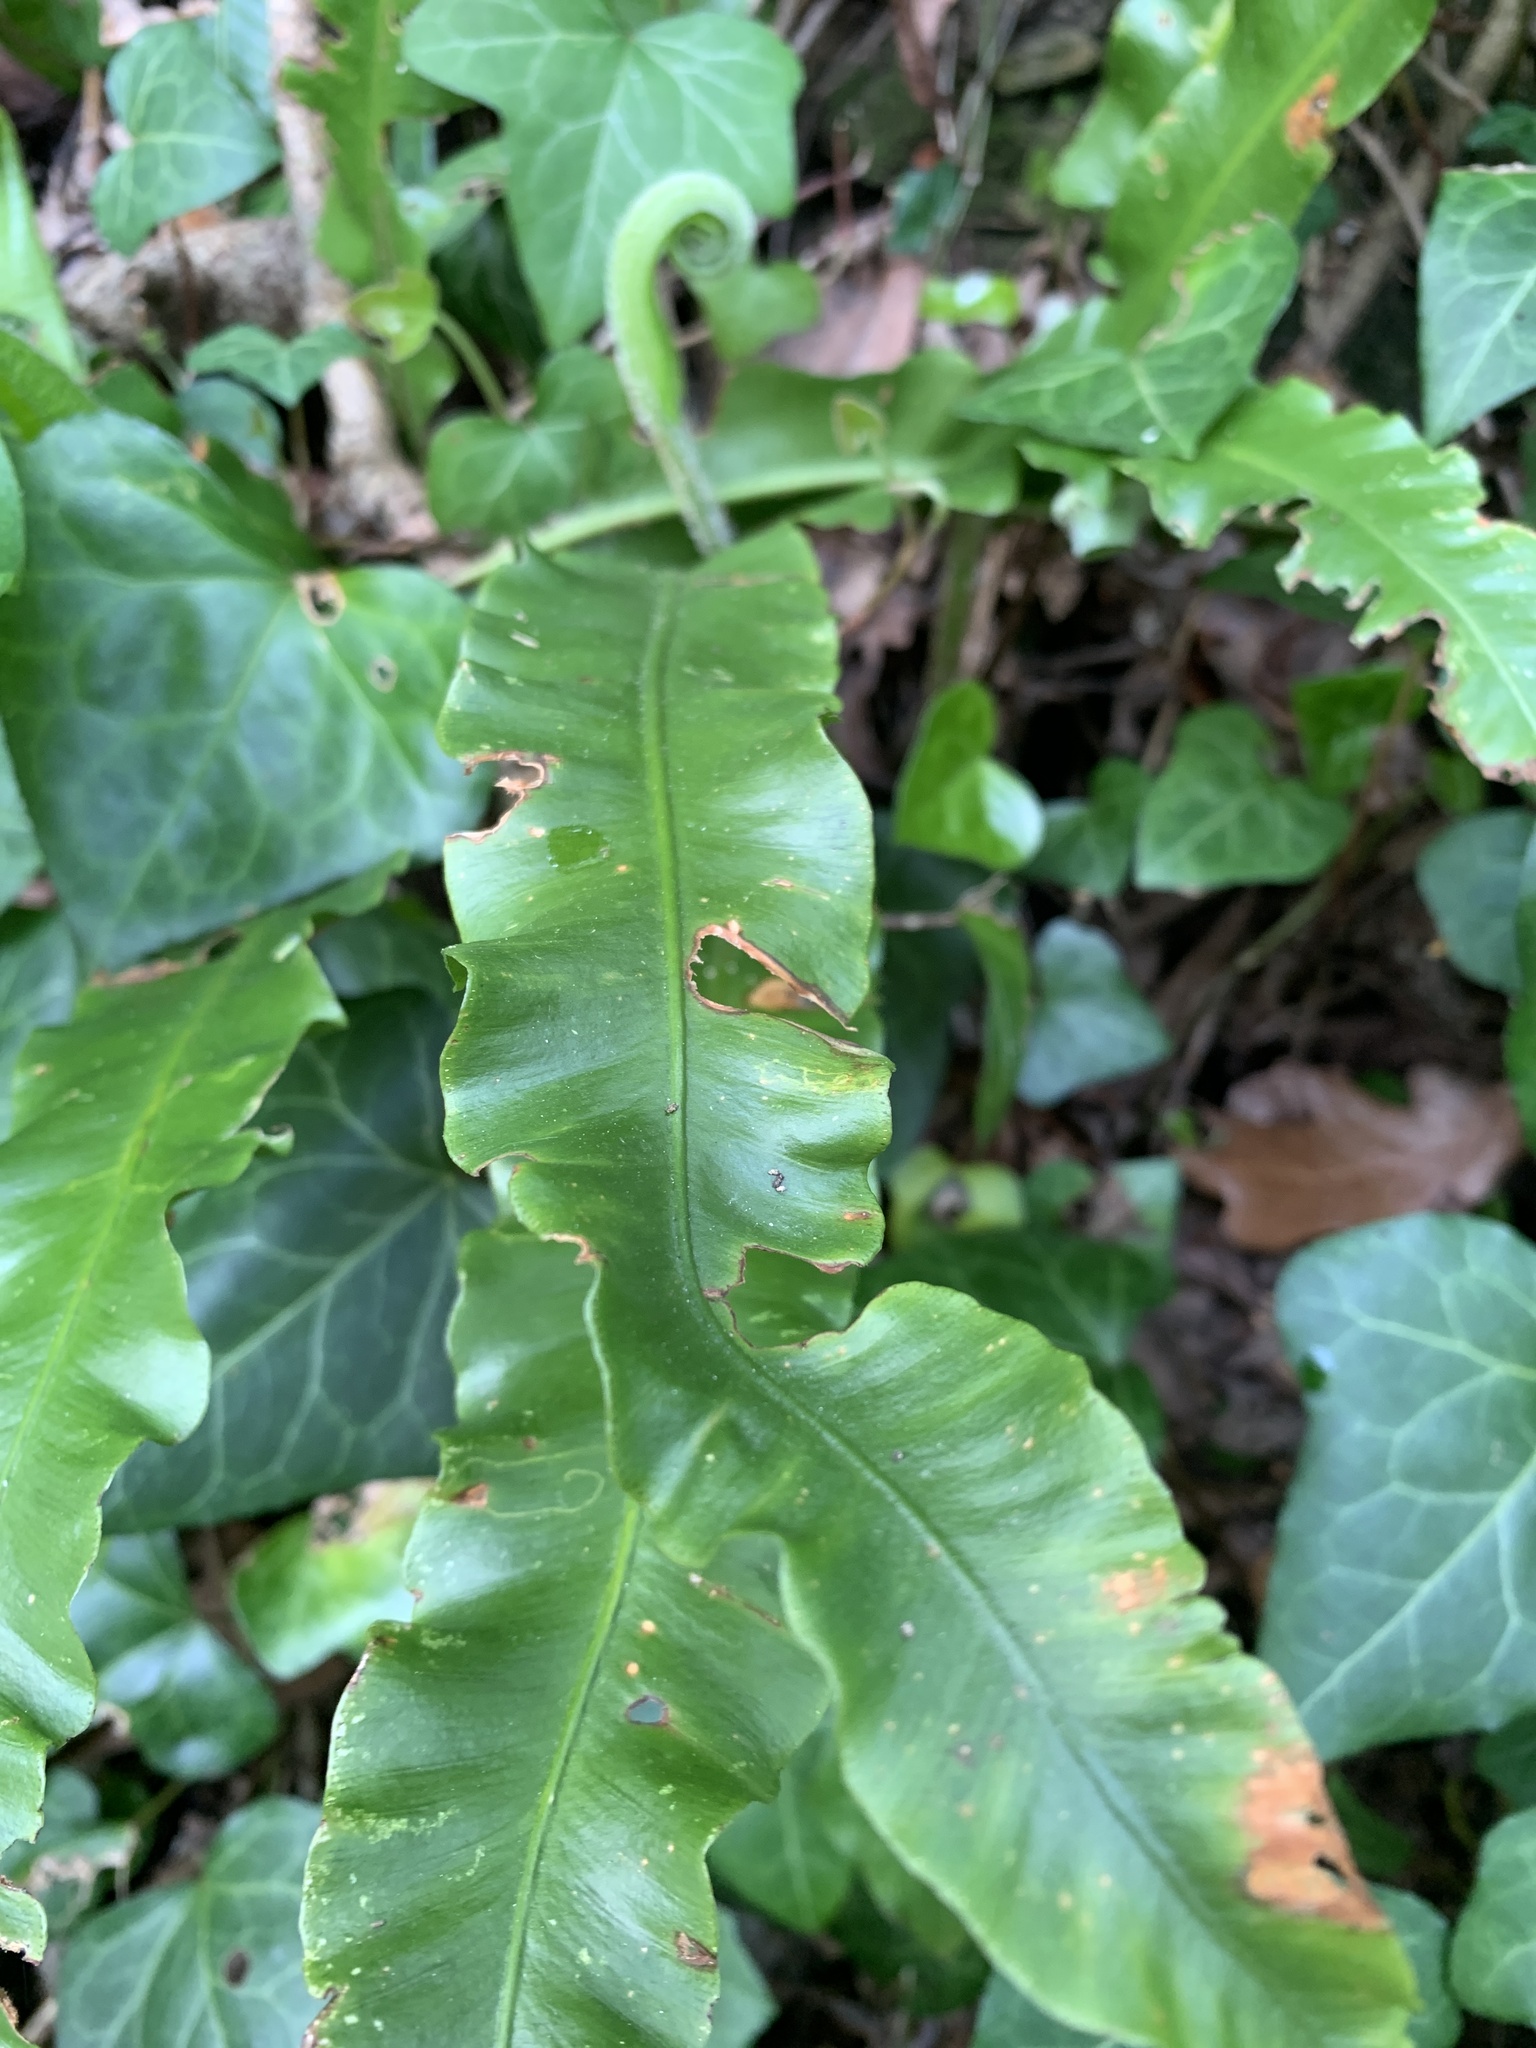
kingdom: Plantae
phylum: Tracheophyta
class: Polypodiopsida
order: Polypodiales
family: Aspleniaceae
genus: Asplenium
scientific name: Asplenium scolopendrium
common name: Hart's-tongue fern
